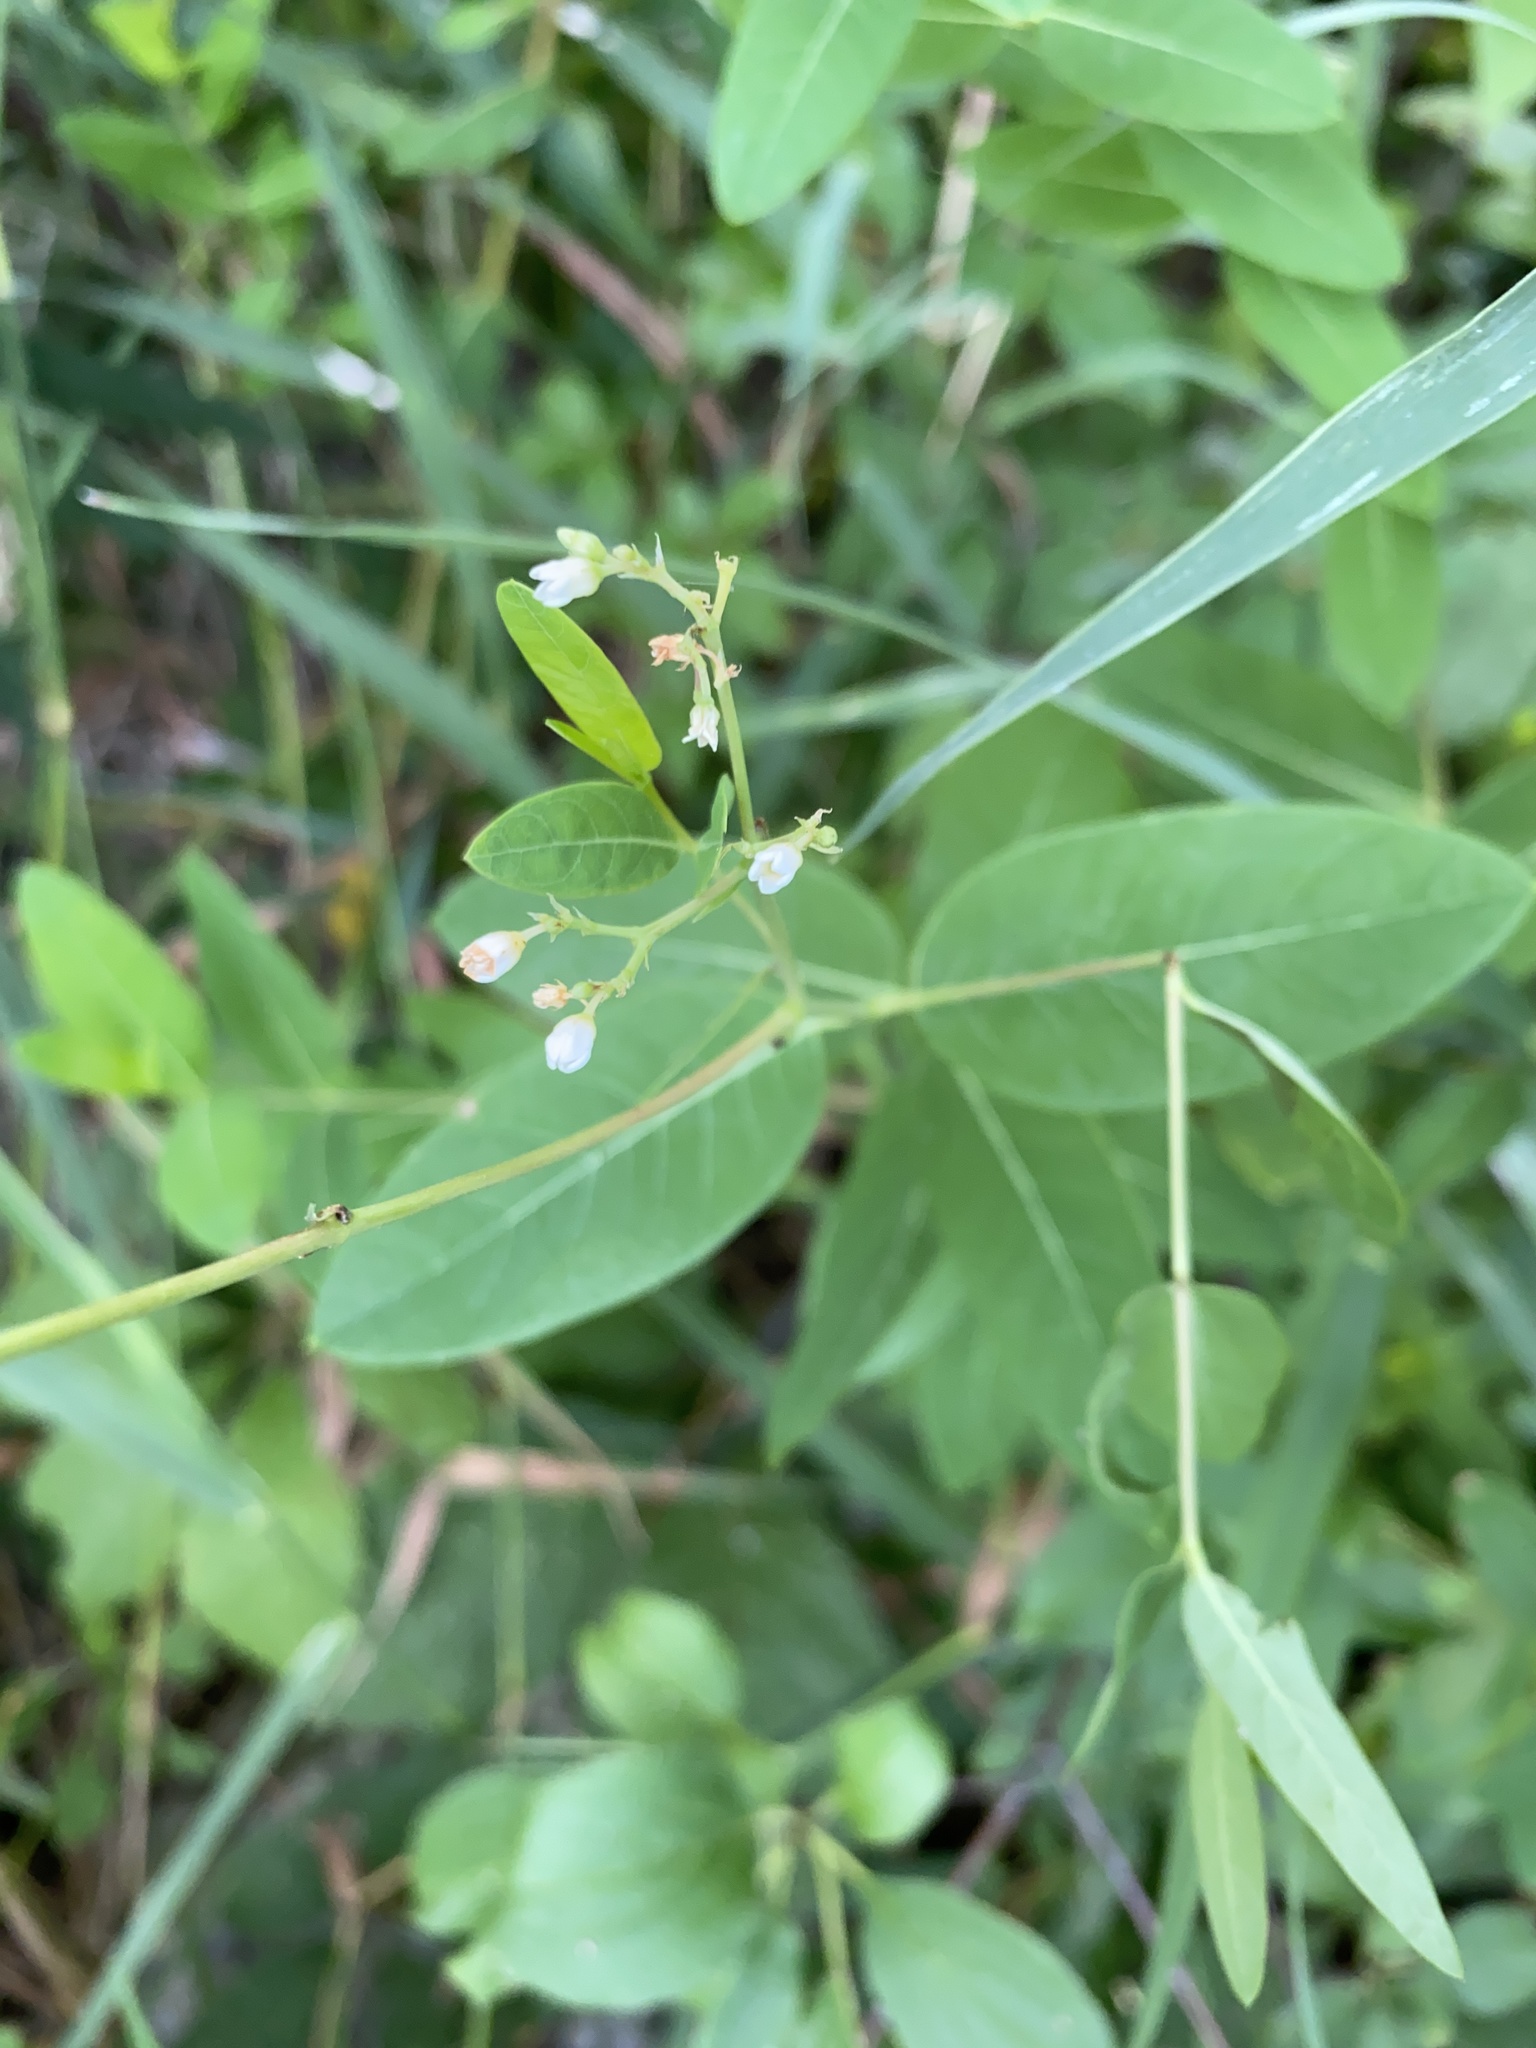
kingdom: Plantae
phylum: Tracheophyta
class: Magnoliopsida
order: Gentianales
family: Apocynaceae
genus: Apocynum
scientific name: Apocynum cannabinum
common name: Hemp dogbane
